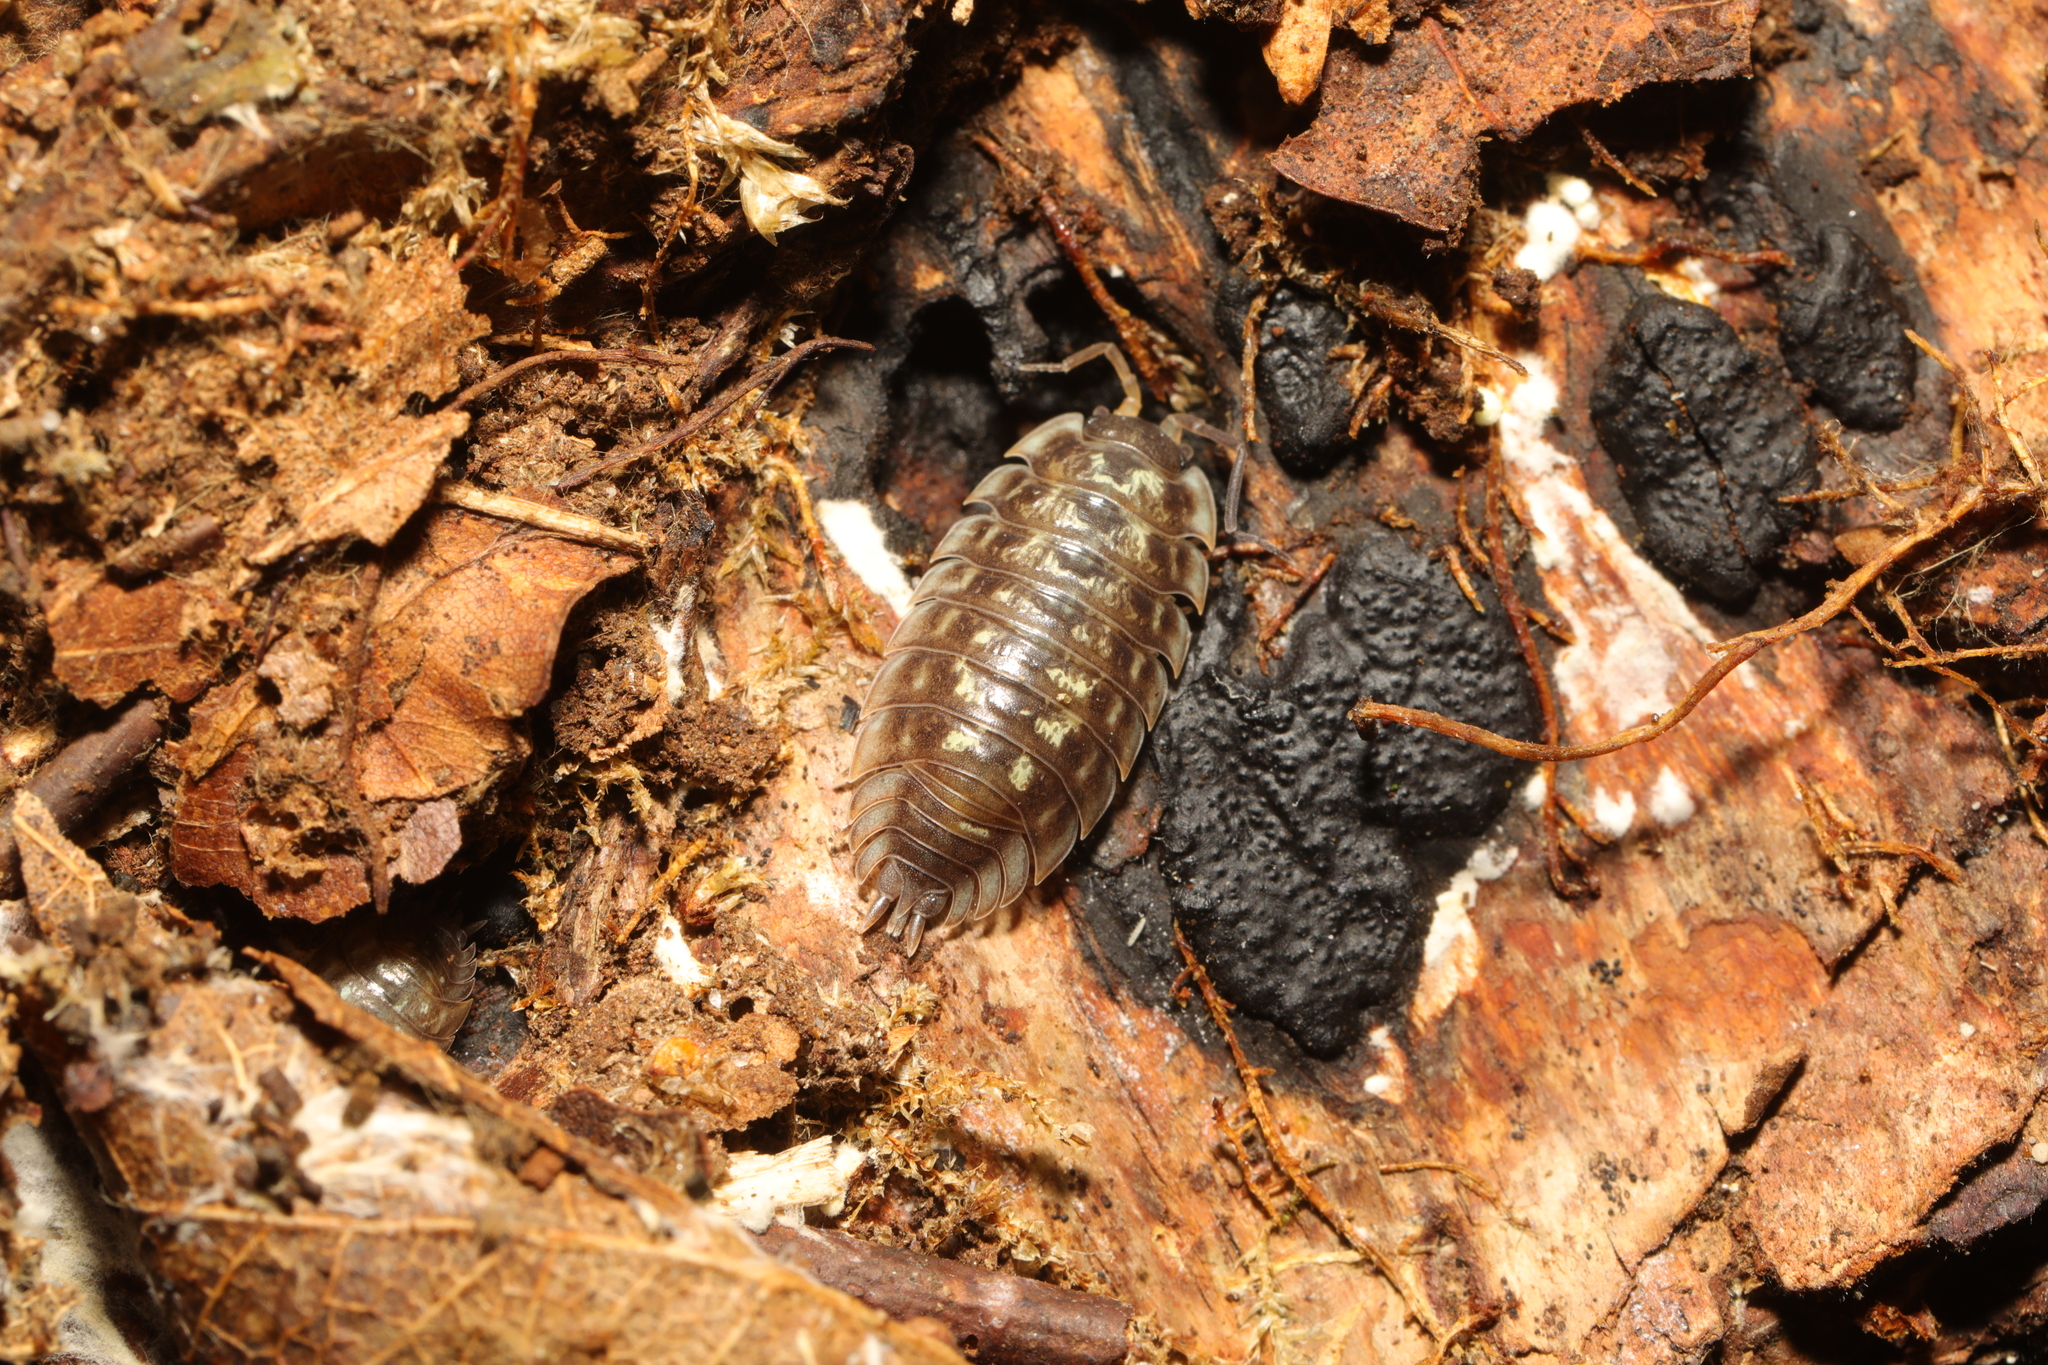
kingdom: Animalia
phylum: Arthropoda
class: Malacostraca
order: Isopoda
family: Oniscidae
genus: Oniscus
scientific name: Oniscus asellus
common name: Common shiny woodlouse
